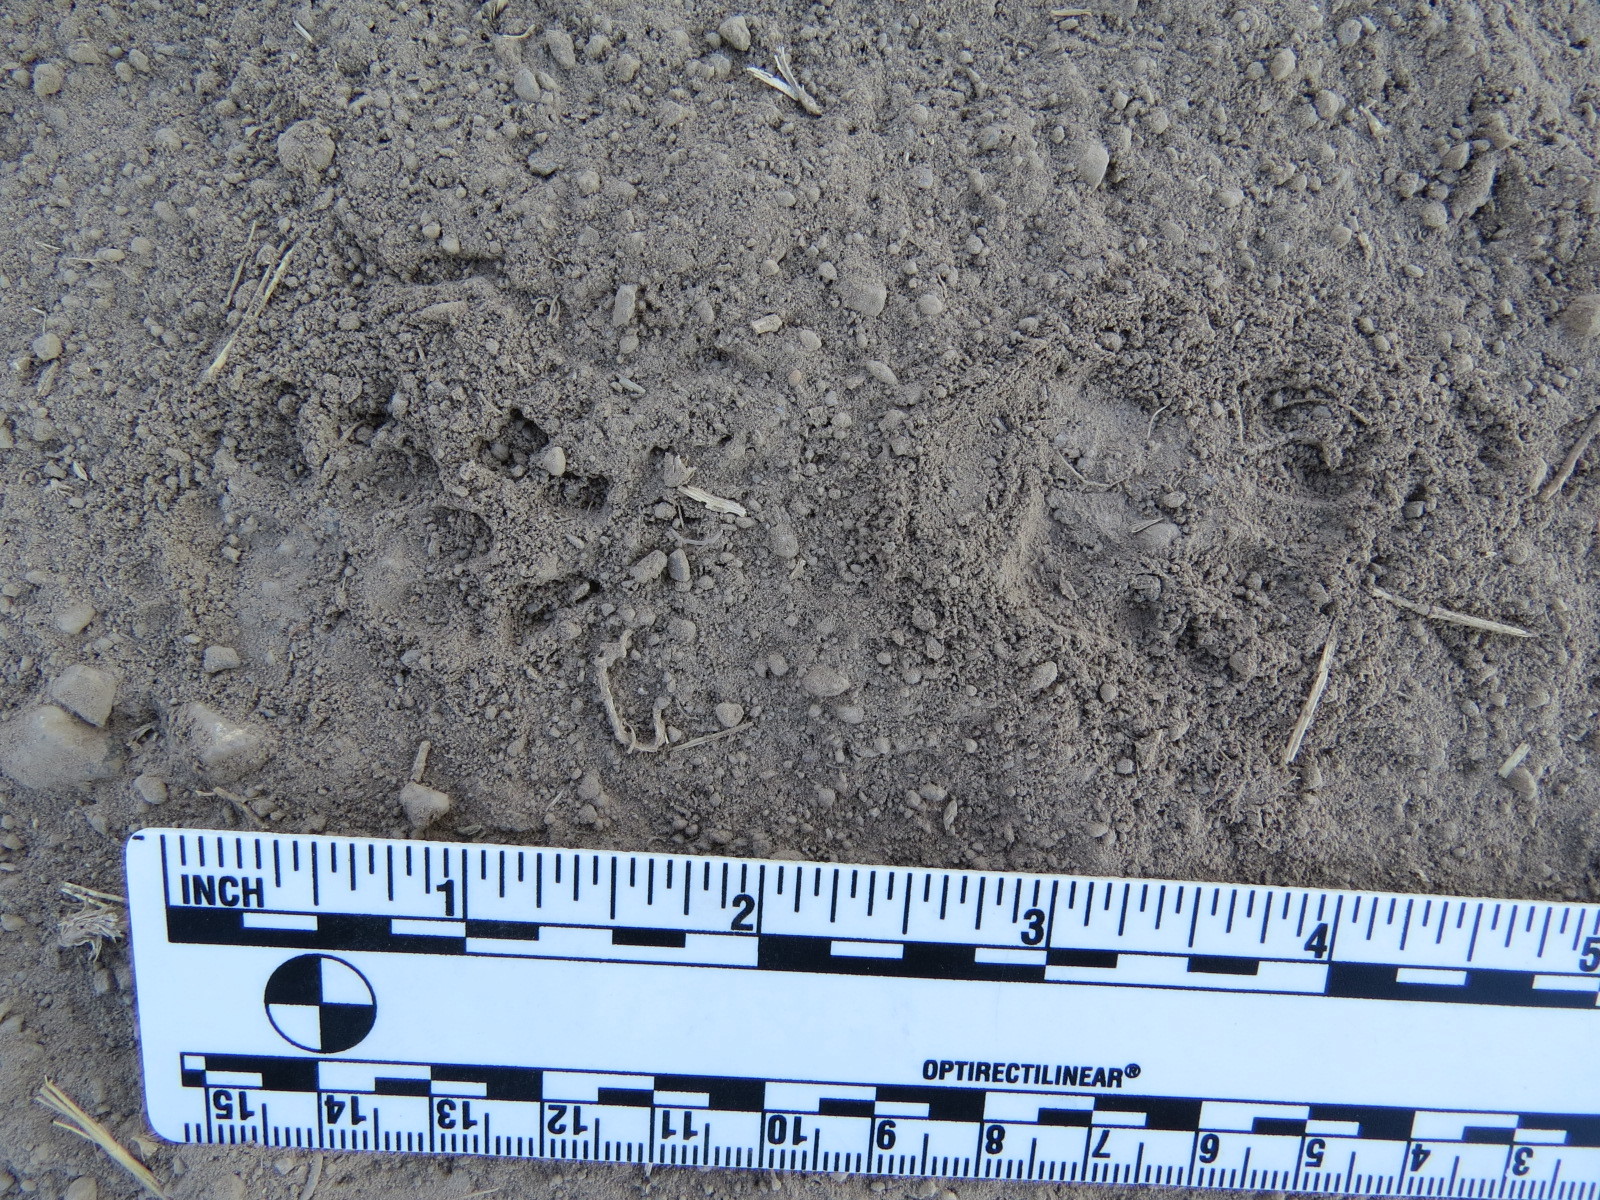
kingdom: Animalia
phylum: Chordata
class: Mammalia
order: Carnivora
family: Mephitidae
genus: Mephitis
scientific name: Mephitis mephitis
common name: Striped skunk
